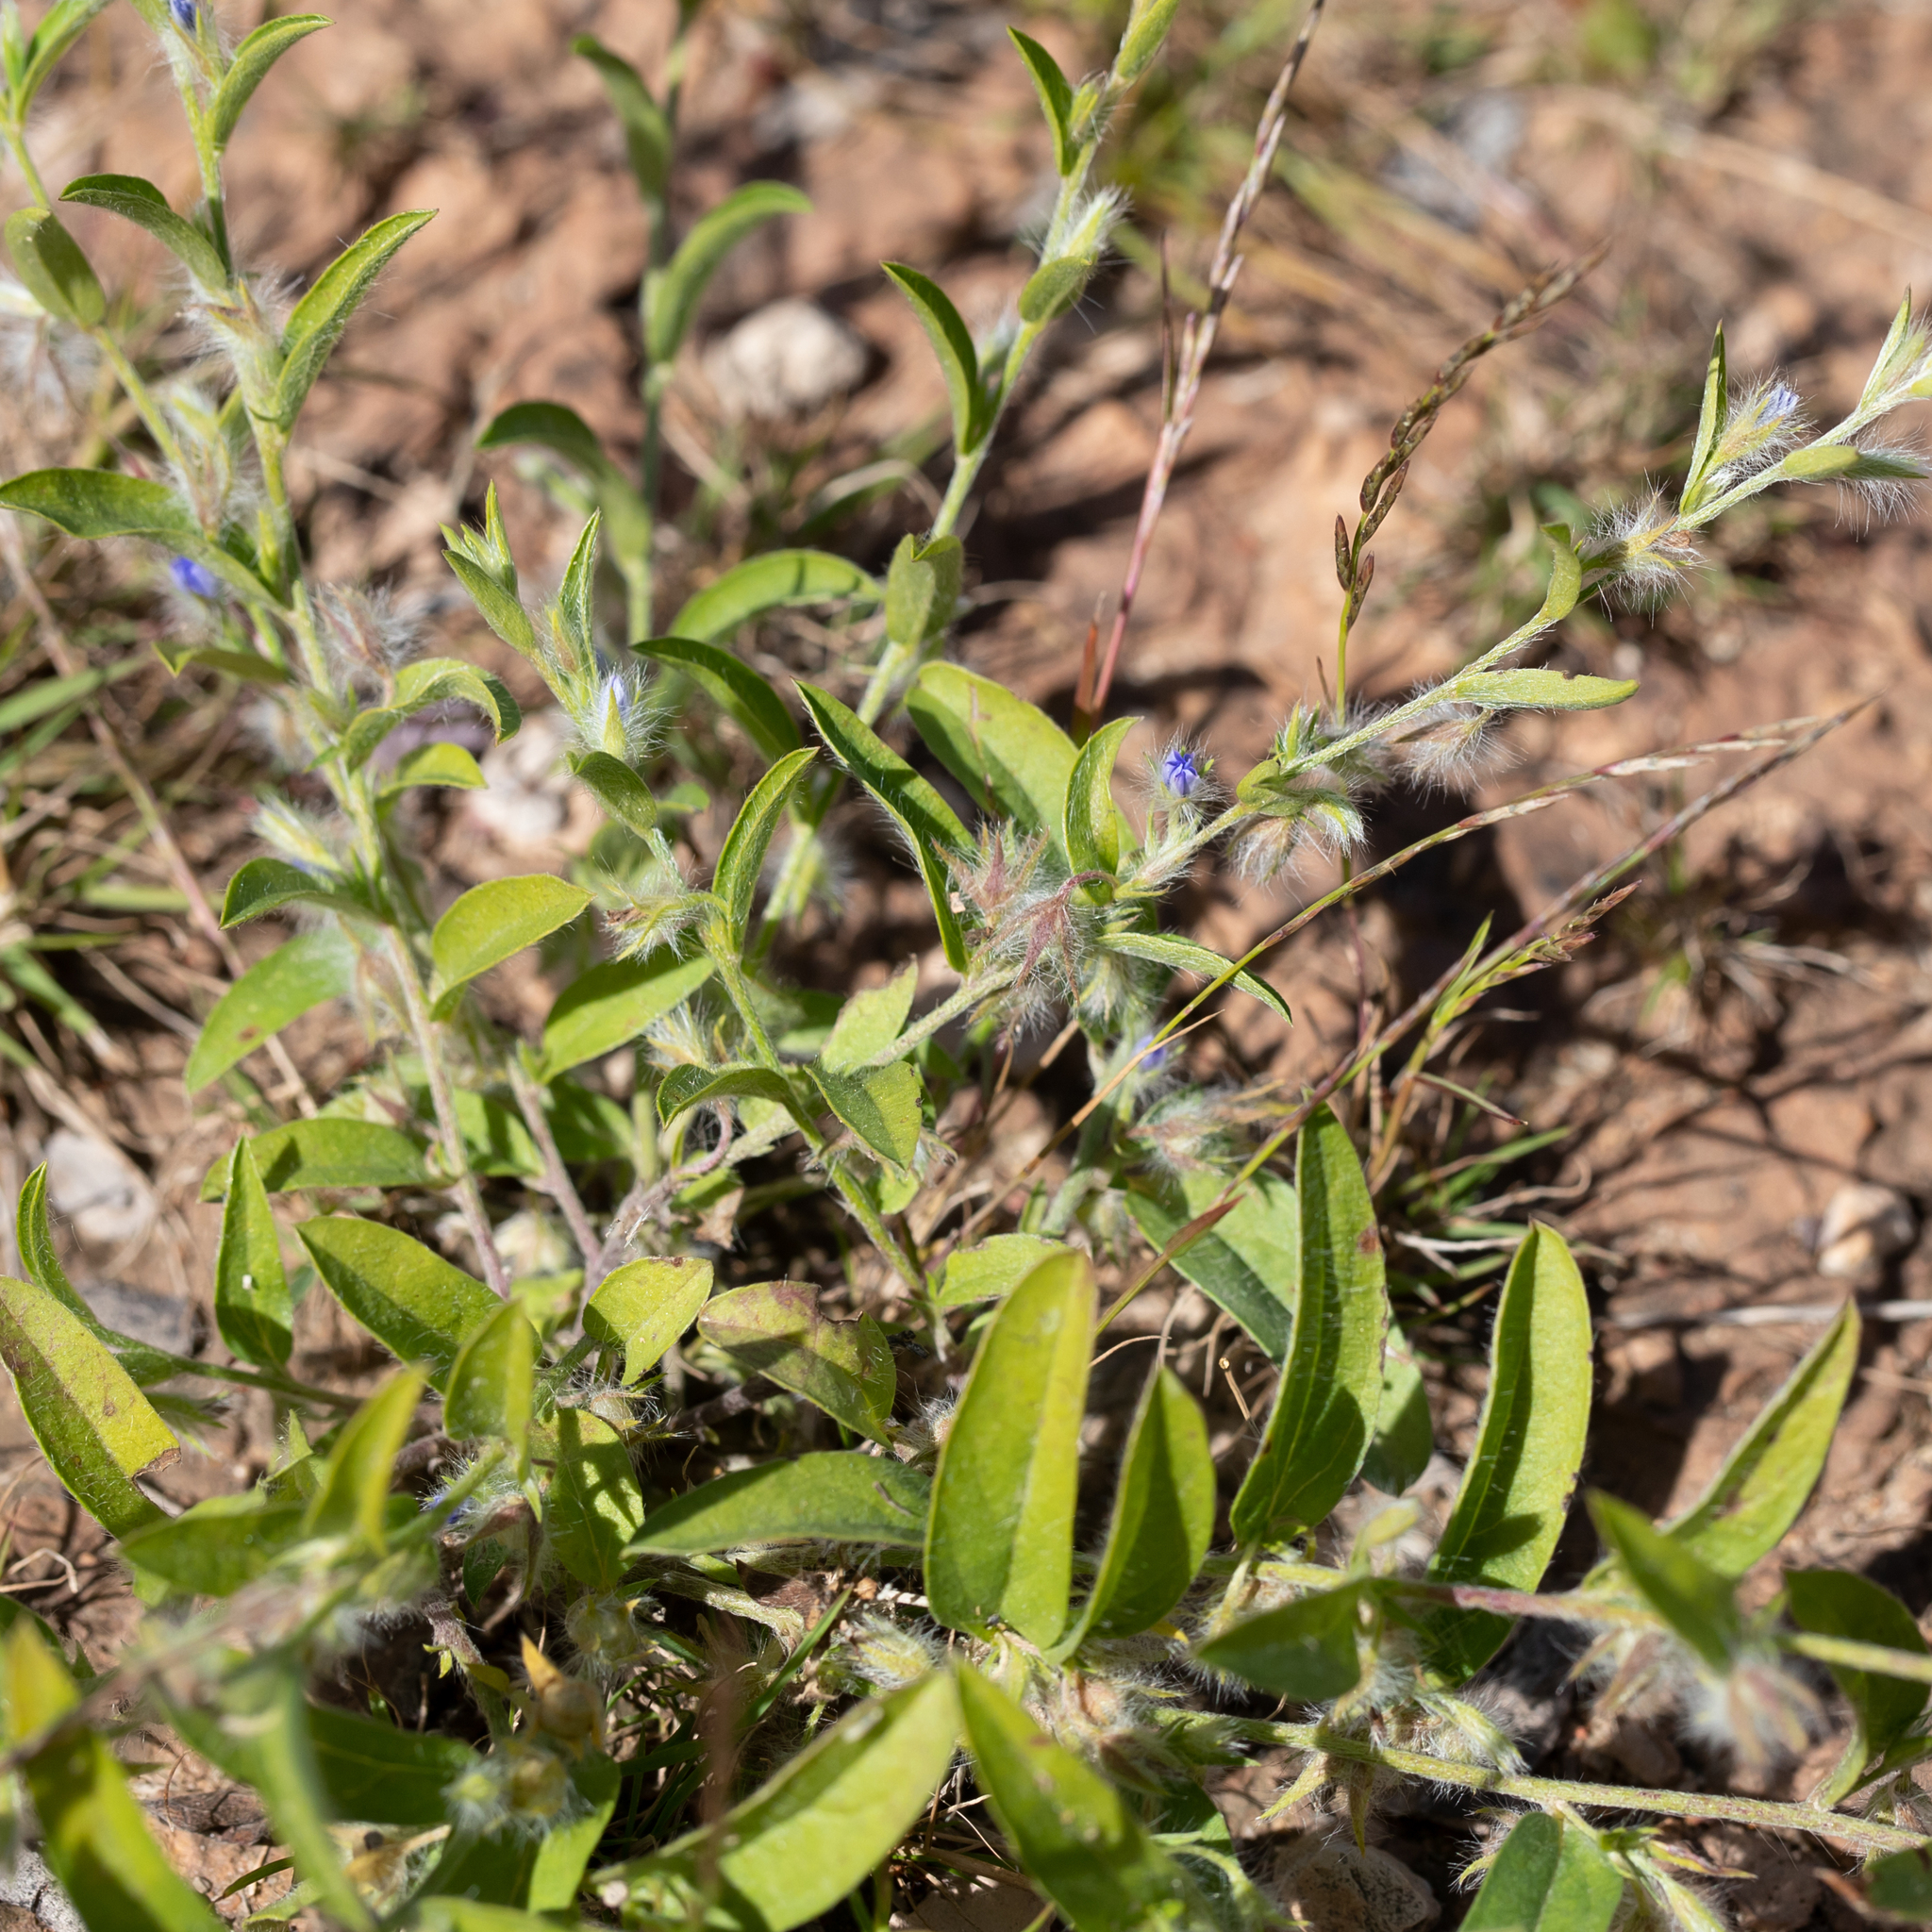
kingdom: Plantae
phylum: Tracheophyta
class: Magnoliopsida
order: Solanales
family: Convolvulaceae
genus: Evolvulus
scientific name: Evolvulus alsinoides
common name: Slender dwarf morning-glory
